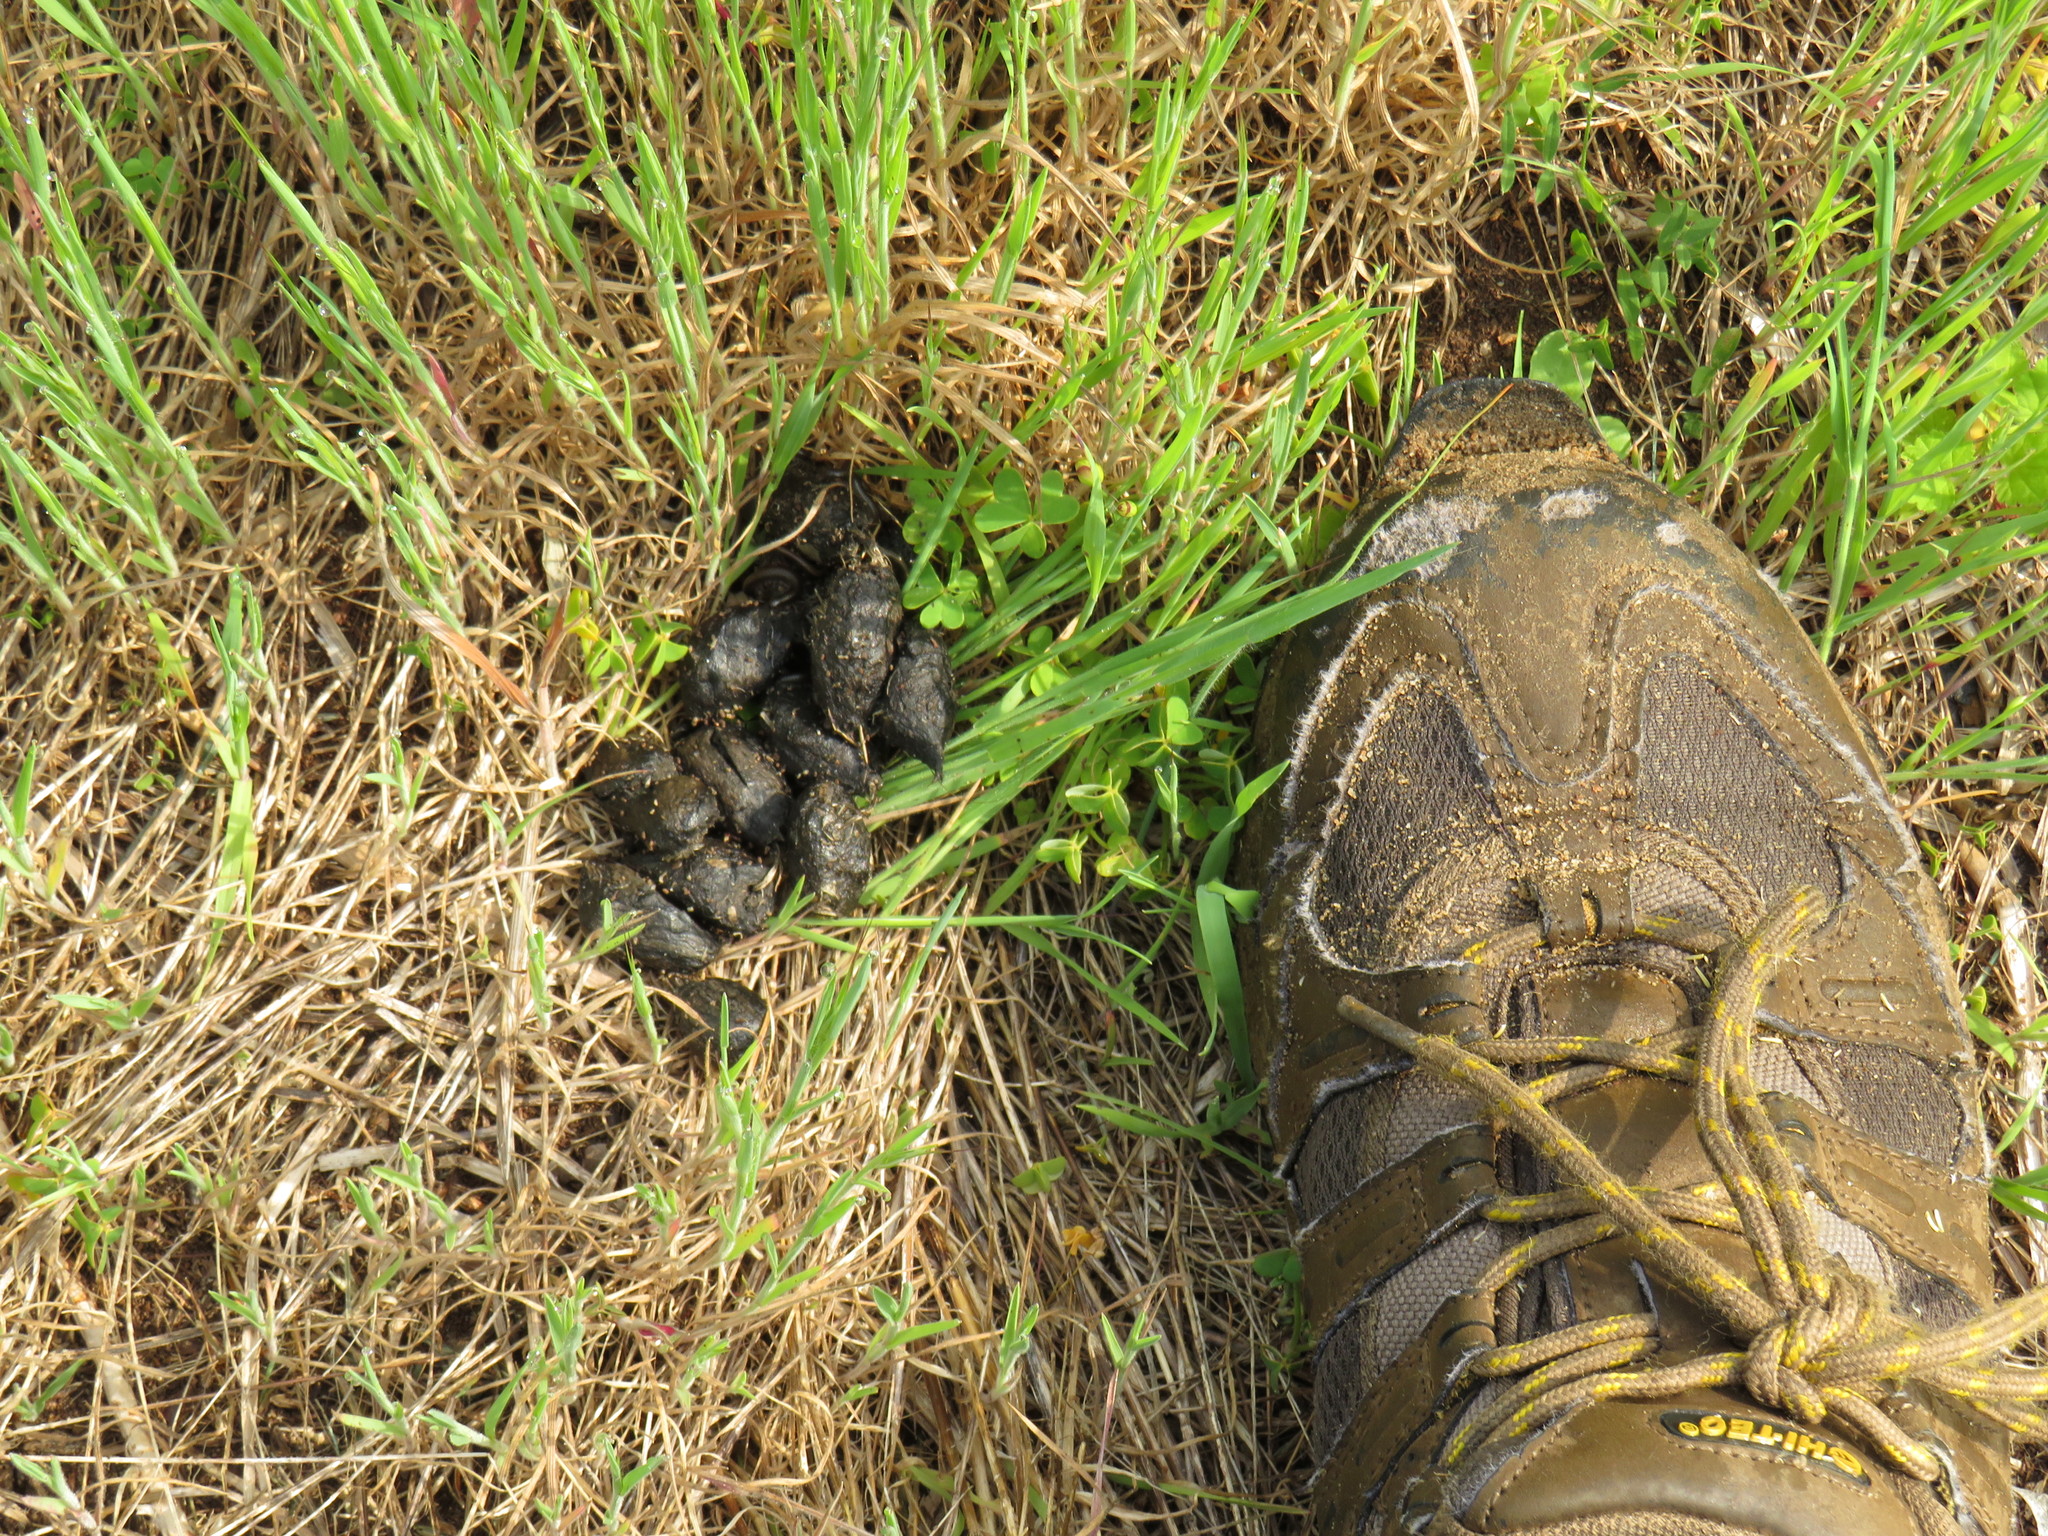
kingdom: Animalia
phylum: Chordata
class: Mammalia
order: Rodentia
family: Hystricidae
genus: Hystrix
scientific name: Hystrix africaeaustralis
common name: Cape porcupine
